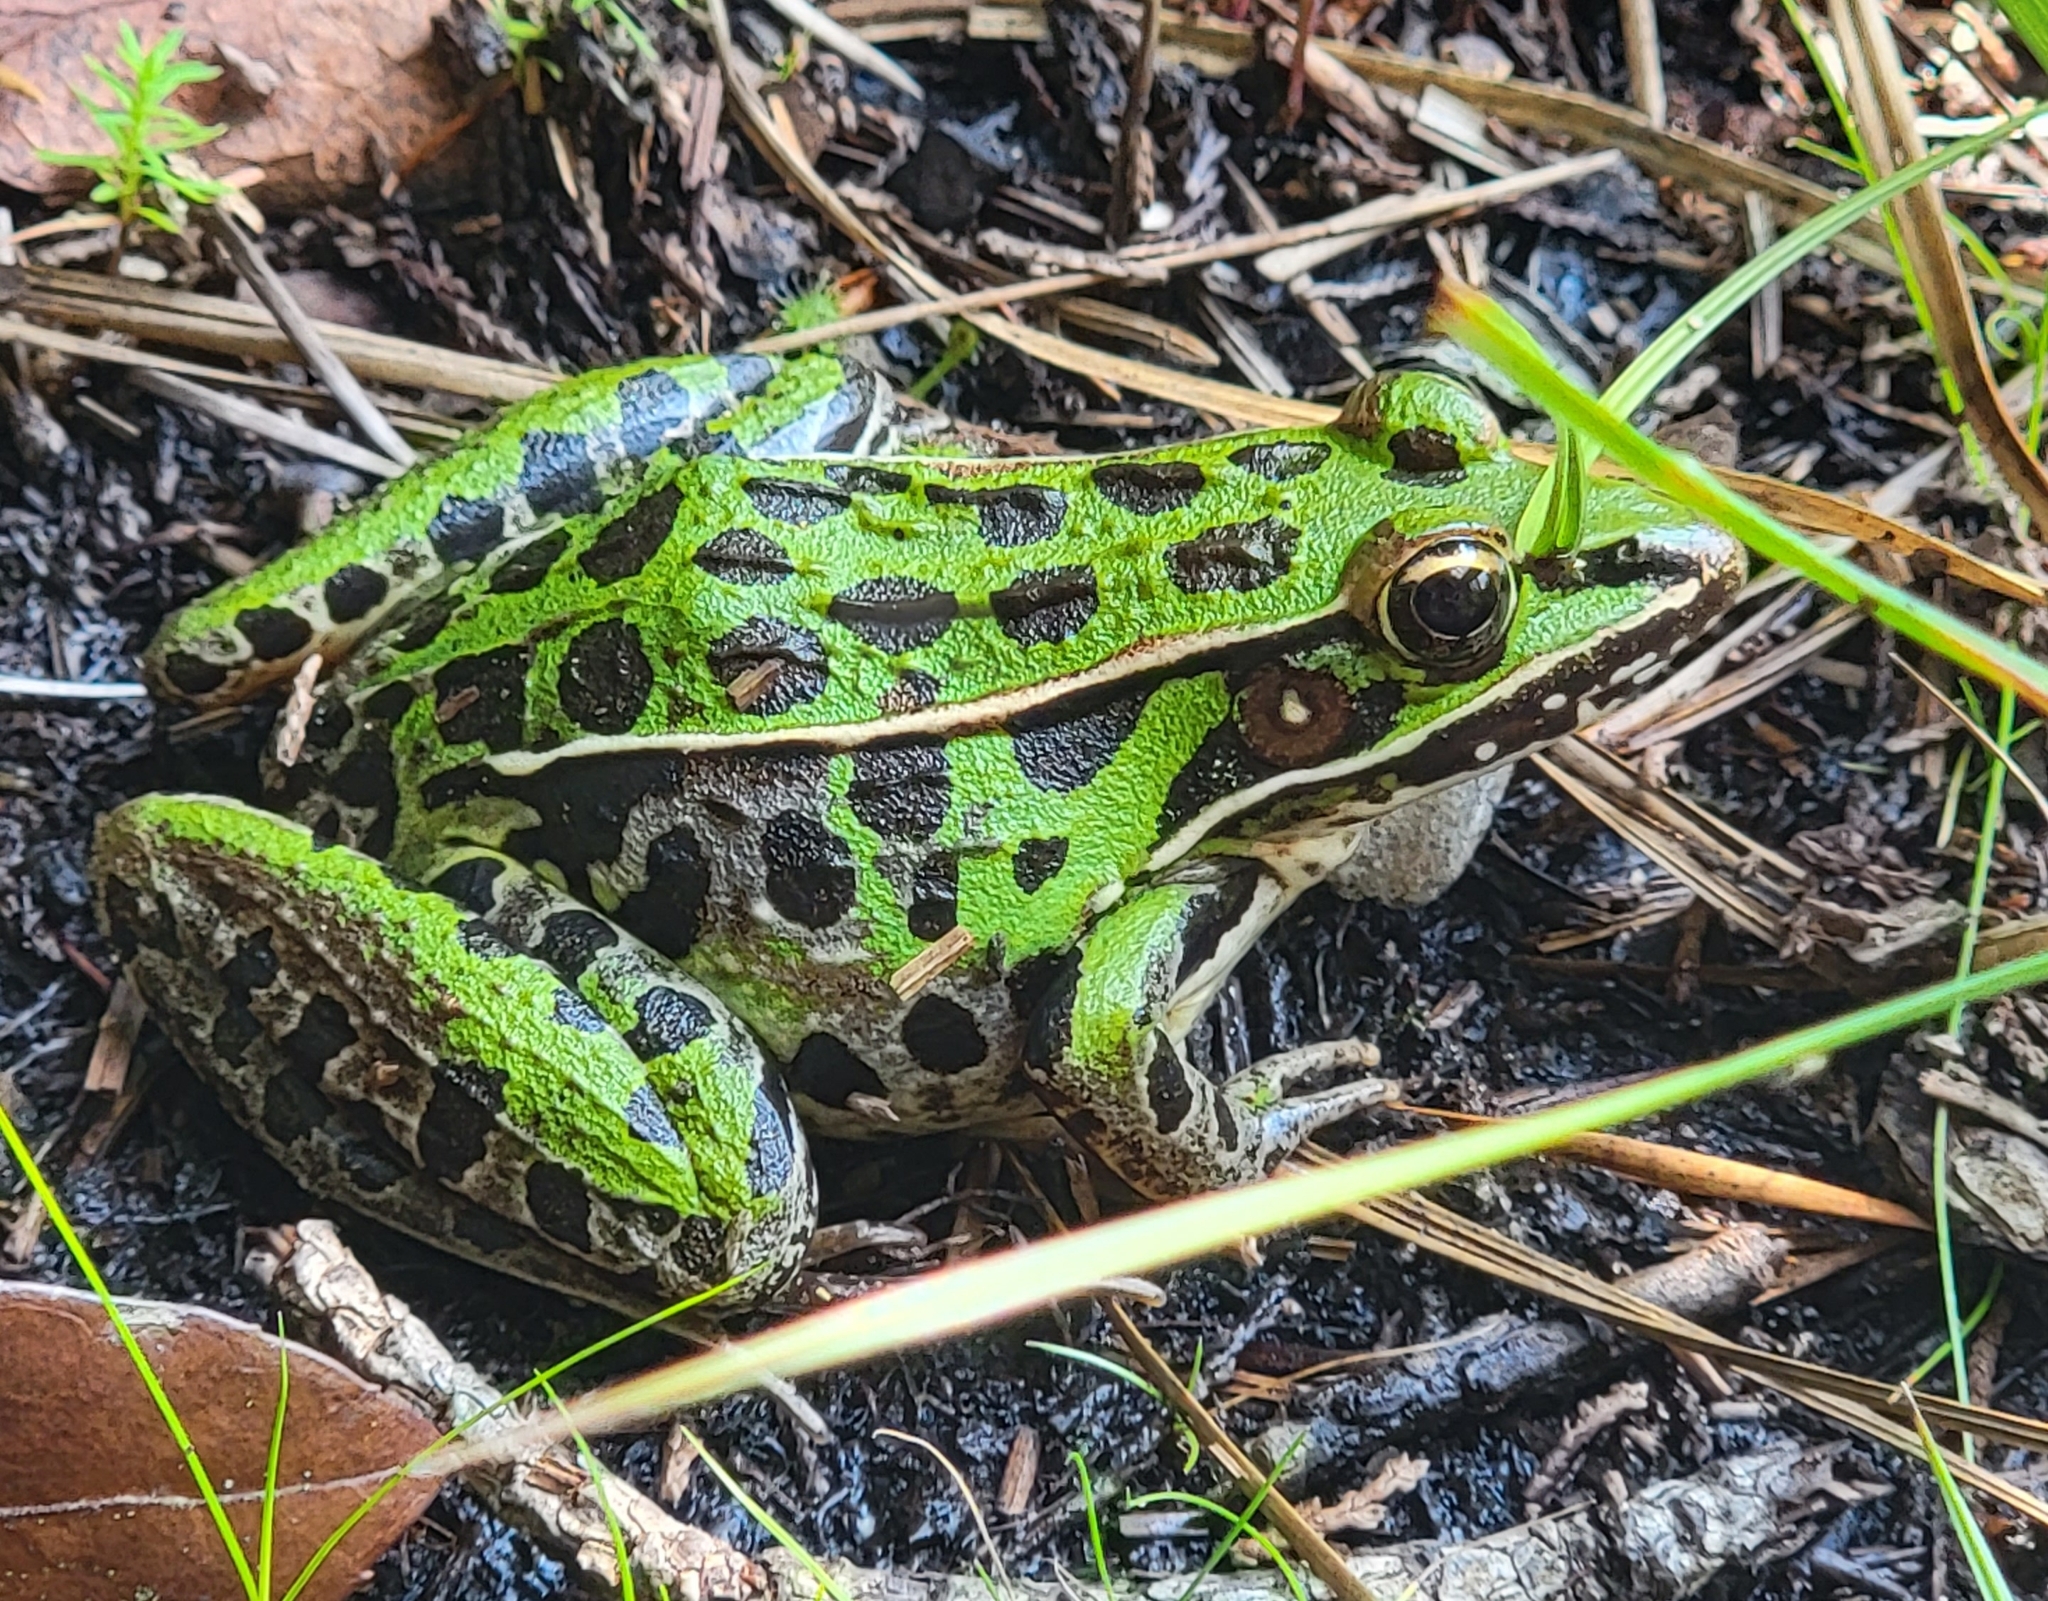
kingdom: Animalia
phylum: Chordata
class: Amphibia
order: Anura
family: Ranidae
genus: Lithobates
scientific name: Lithobates sphenocephalus
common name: Southern leopard frog
